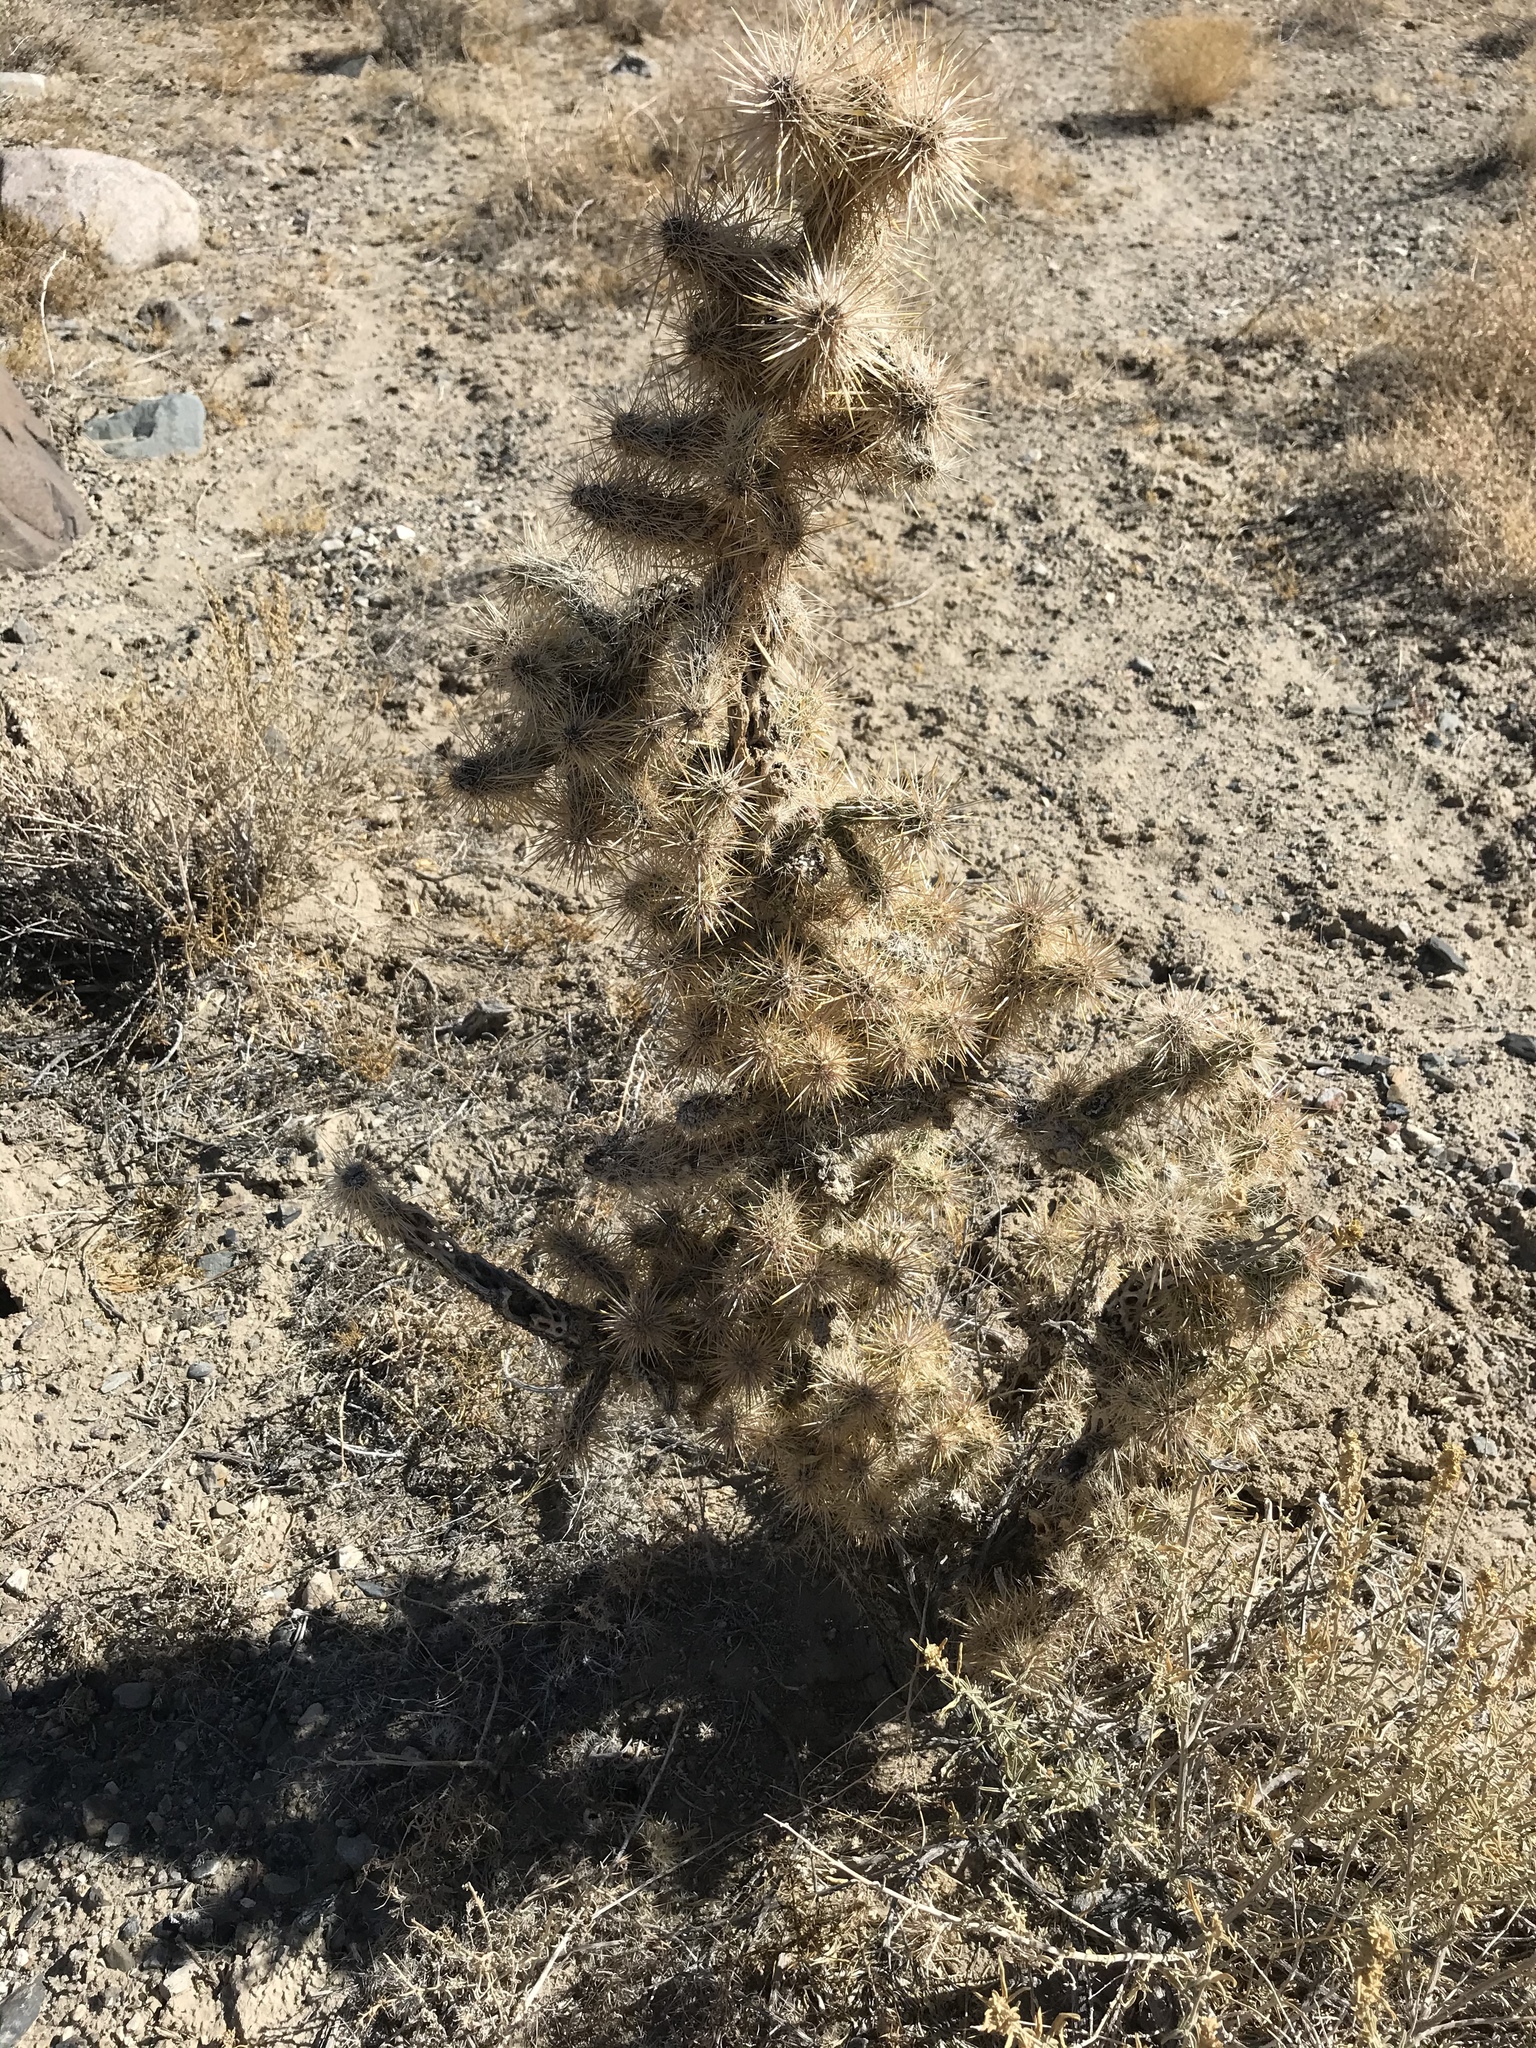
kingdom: Plantae
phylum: Tracheophyta
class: Magnoliopsida
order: Caryophyllales
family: Cactaceae
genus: Cylindropuntia
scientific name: Cylindropuntia echinocarpa
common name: Ground cholla
